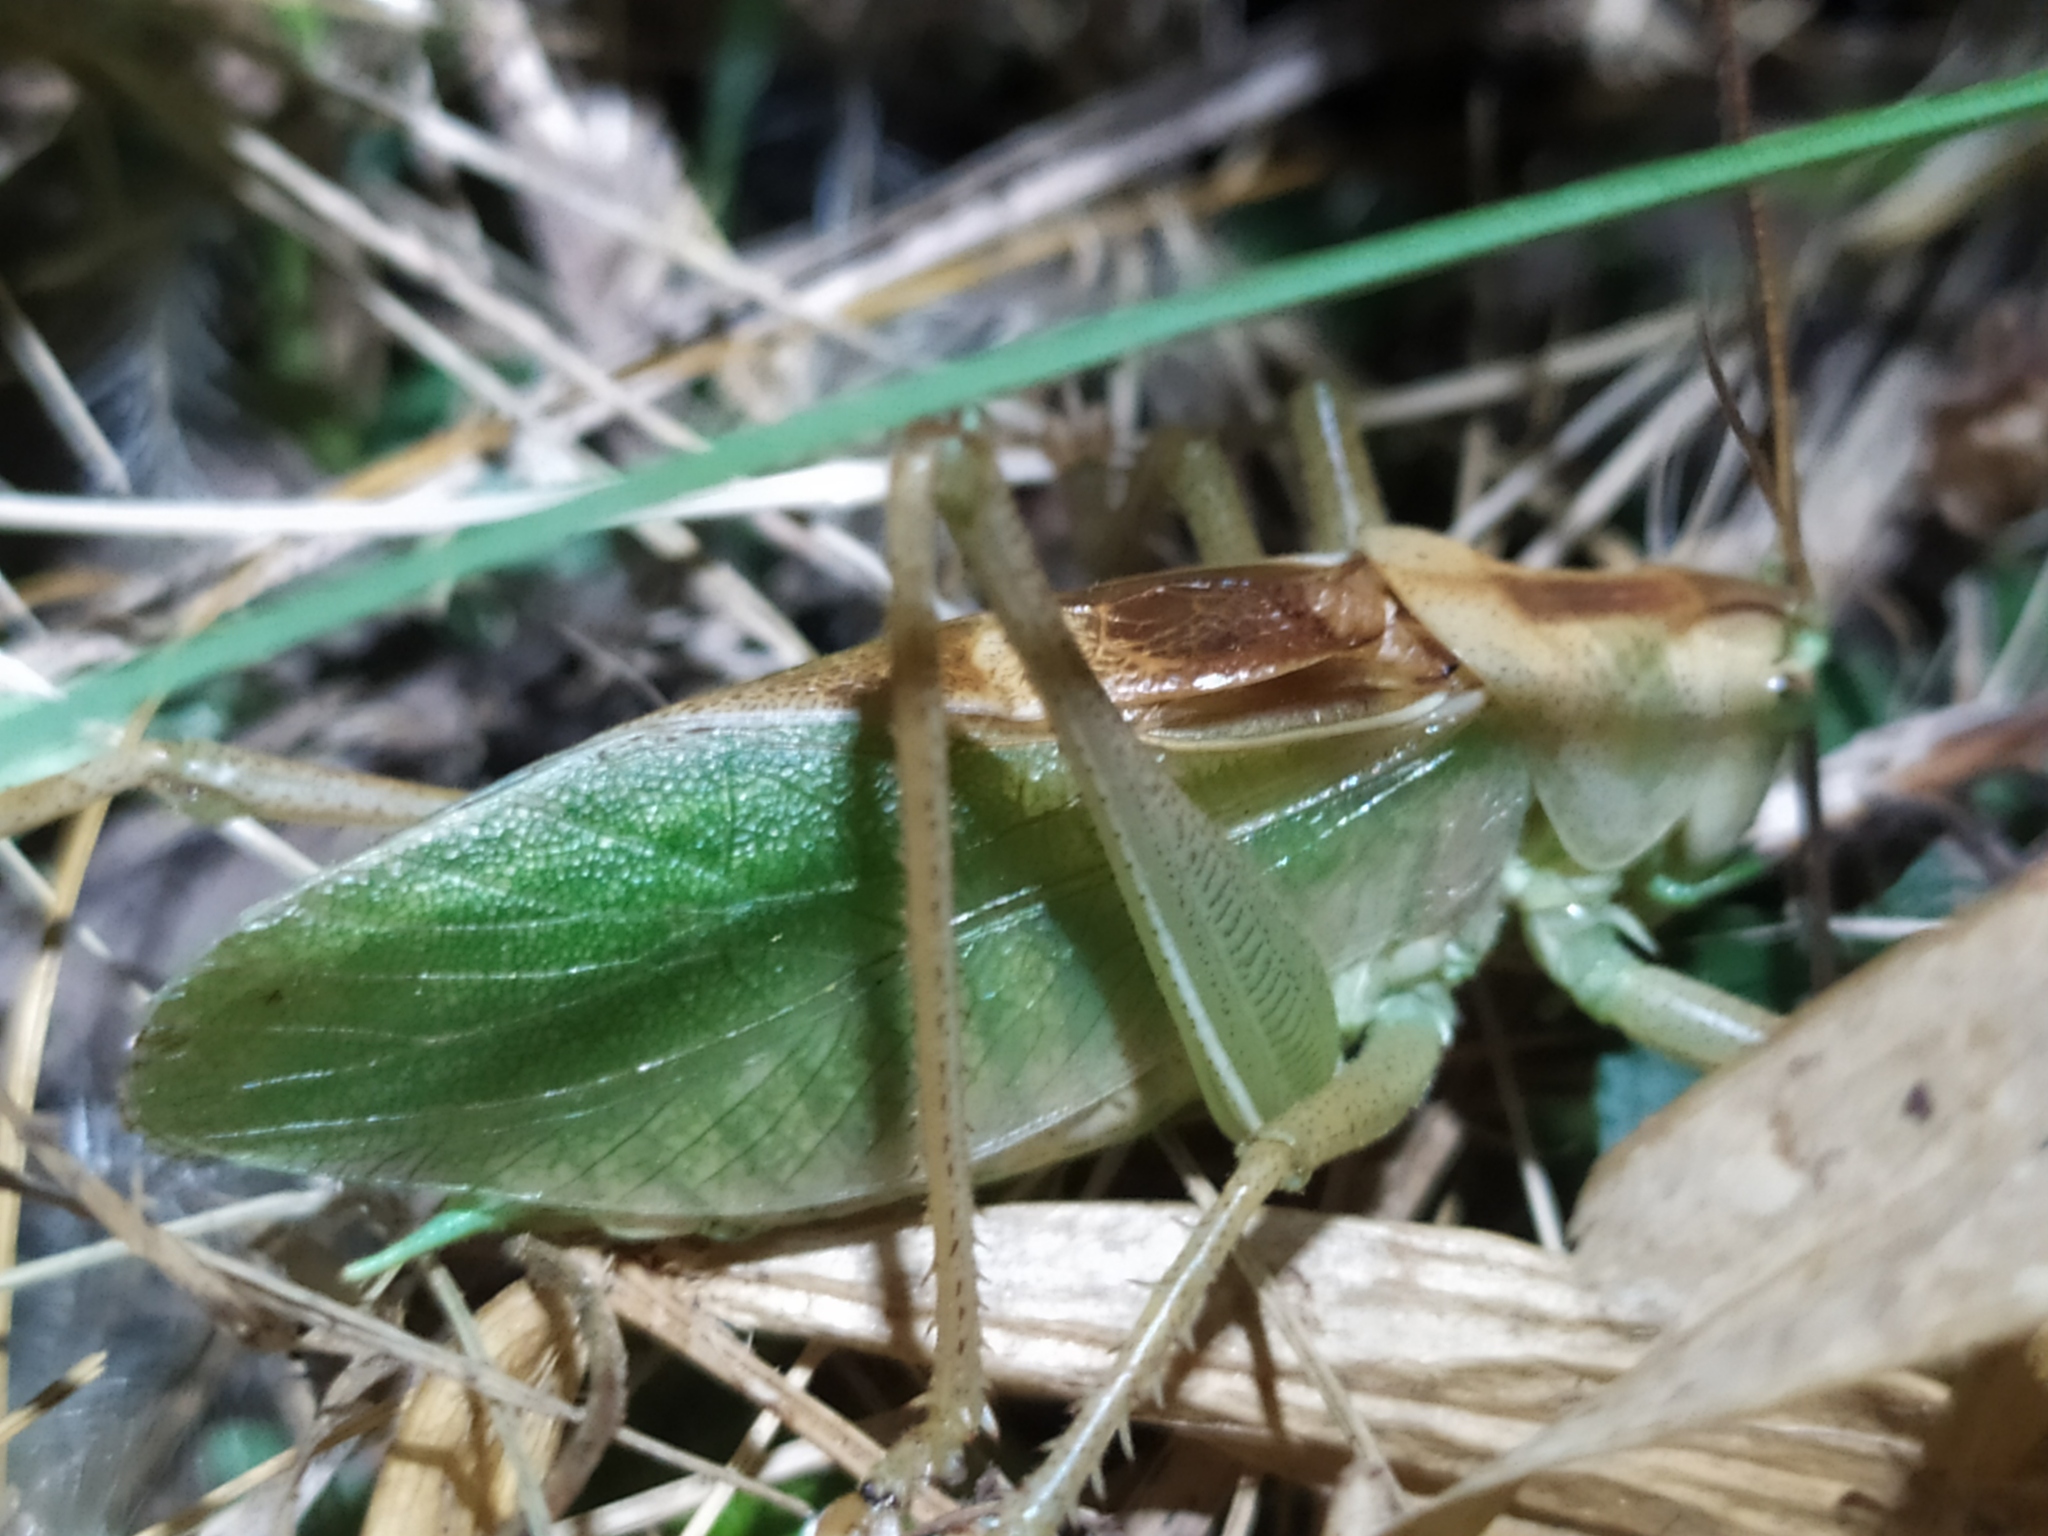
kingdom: Animalia
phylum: Arthropoda
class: Insecta
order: Orthoptera
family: Tettigoniidae
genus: Tettigonia
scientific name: Tettigonia cantans
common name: Upland green bush-cricket
